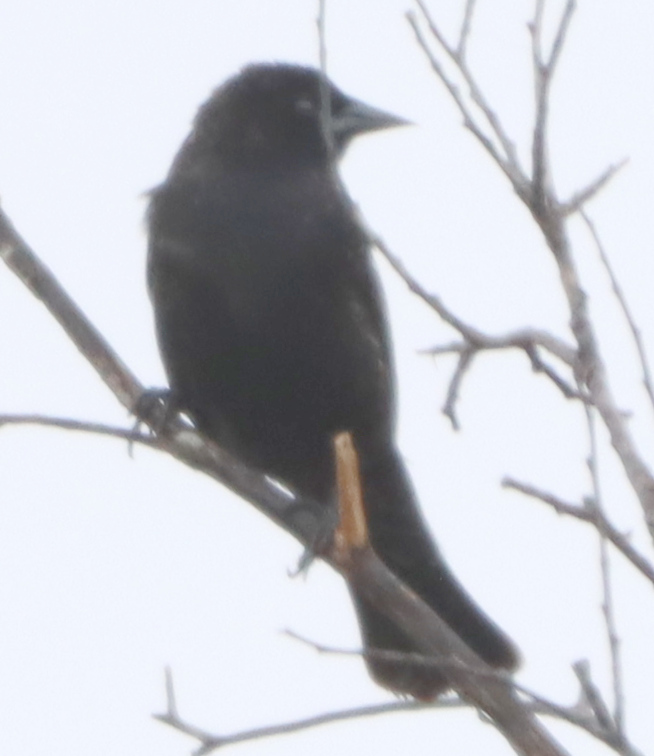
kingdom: Animalia
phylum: Chordata
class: Aves
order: Passeriformes
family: Icteridae
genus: Agelaius
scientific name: Agelaius phoeniceus
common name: Red-winged blackbird
